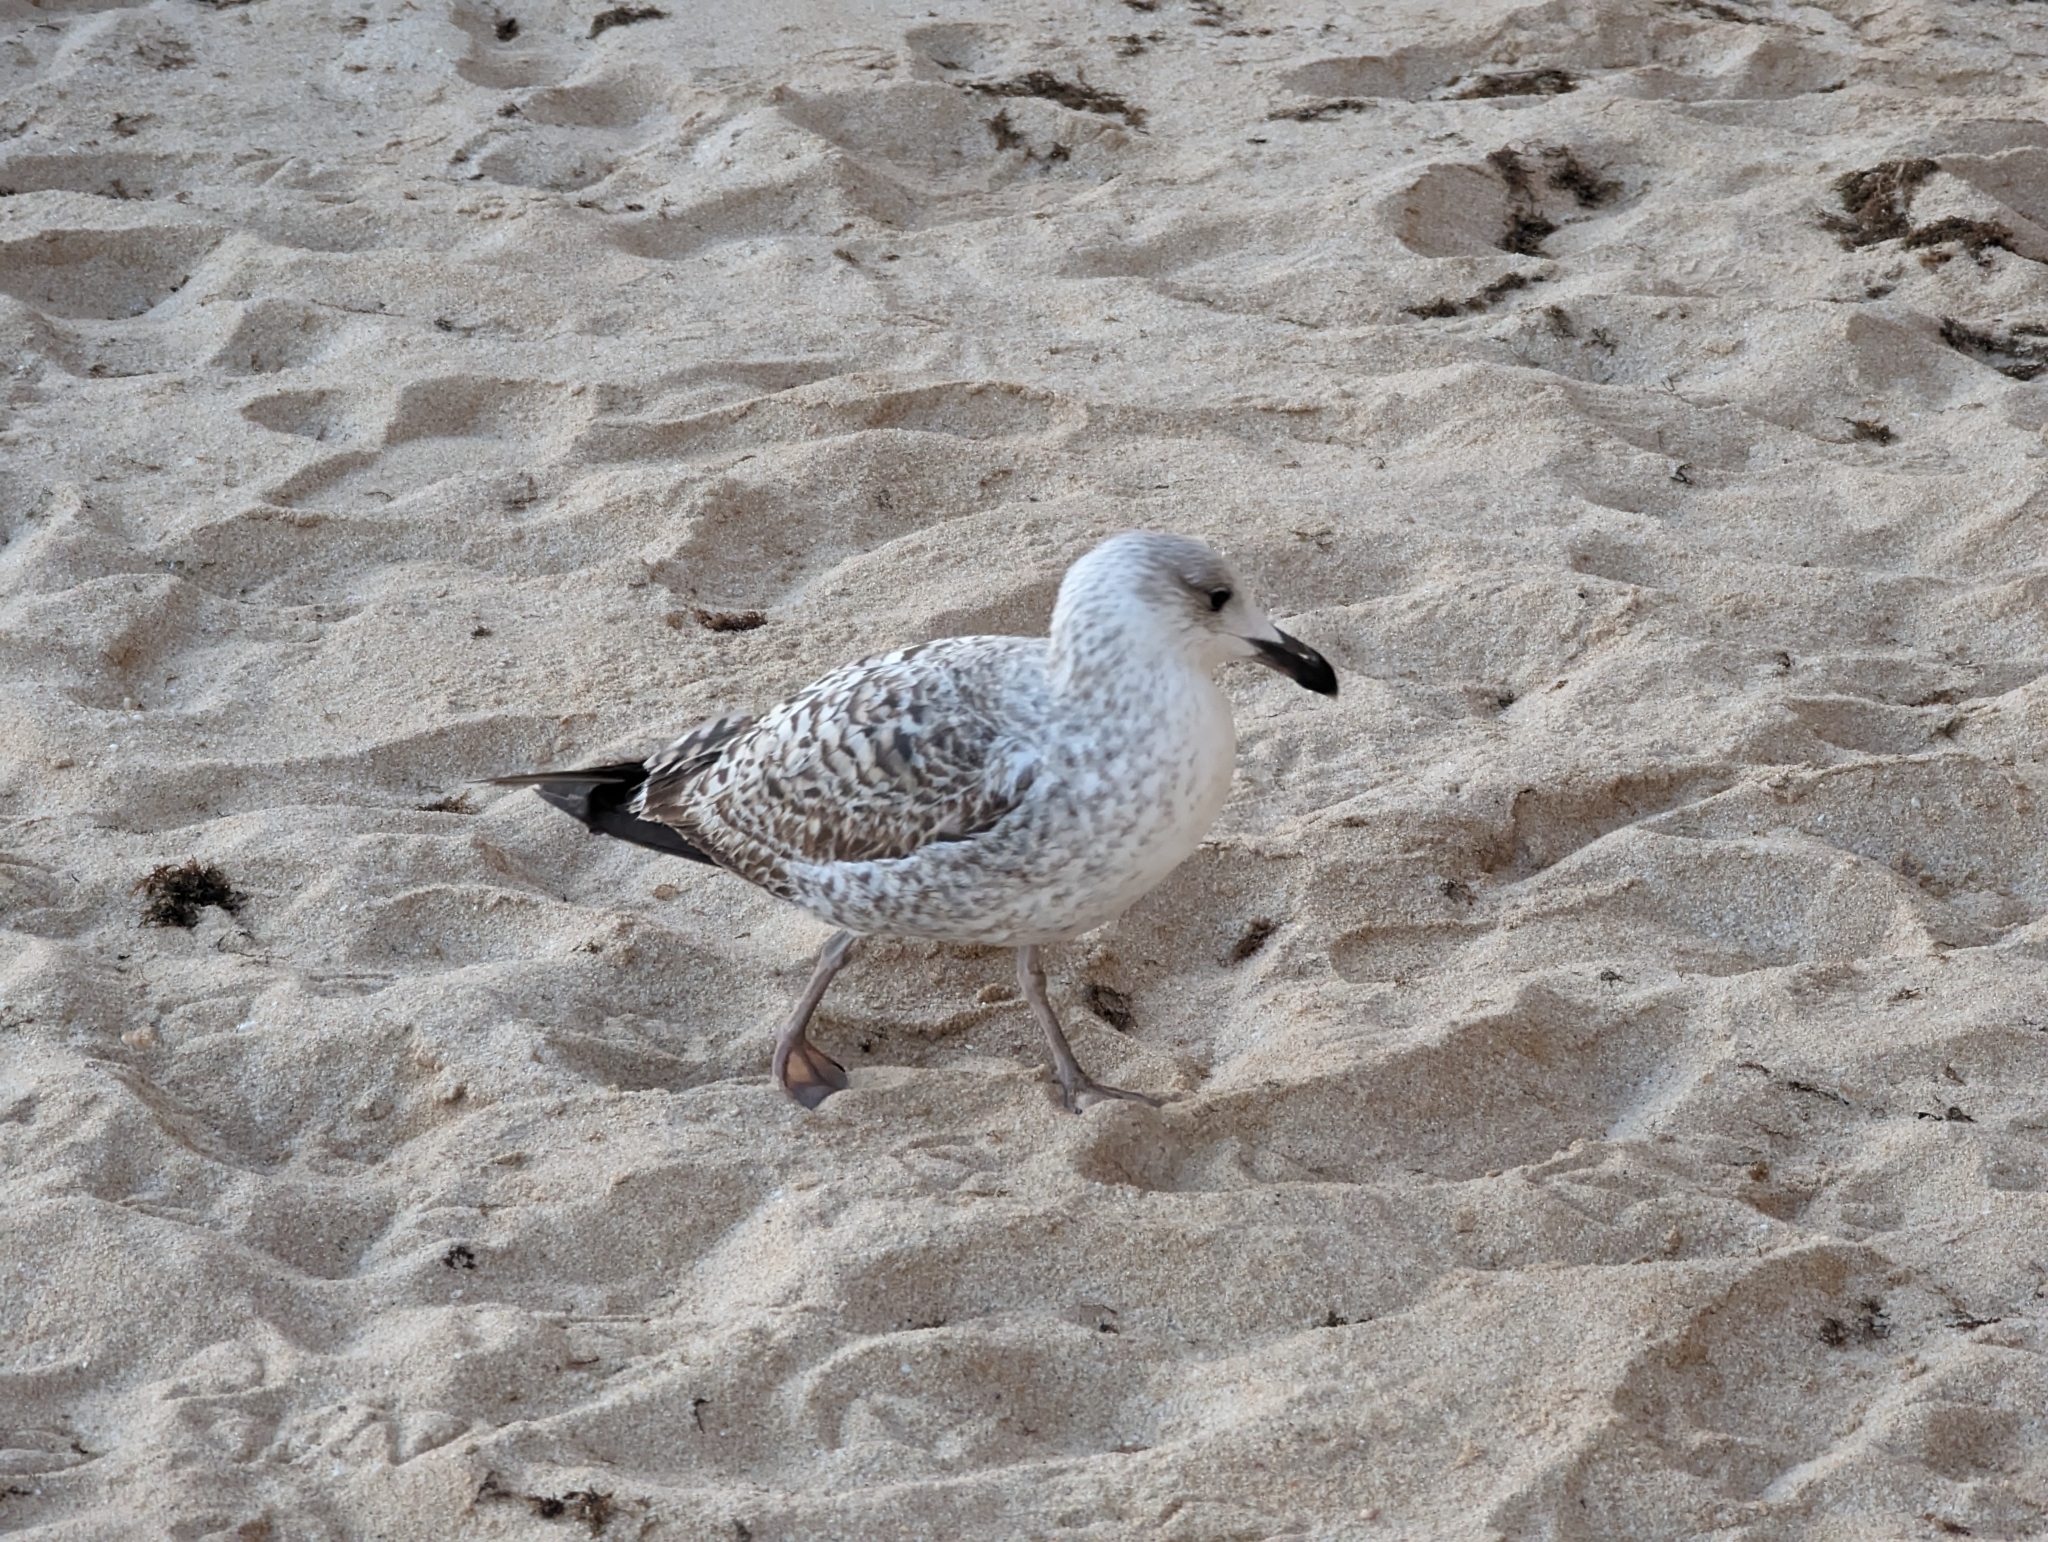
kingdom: Animalia
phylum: Chordata
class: Aves
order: Charadriiformes
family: Laridae
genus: Larus
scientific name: Larus michahellis
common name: Yellow-legged gull
